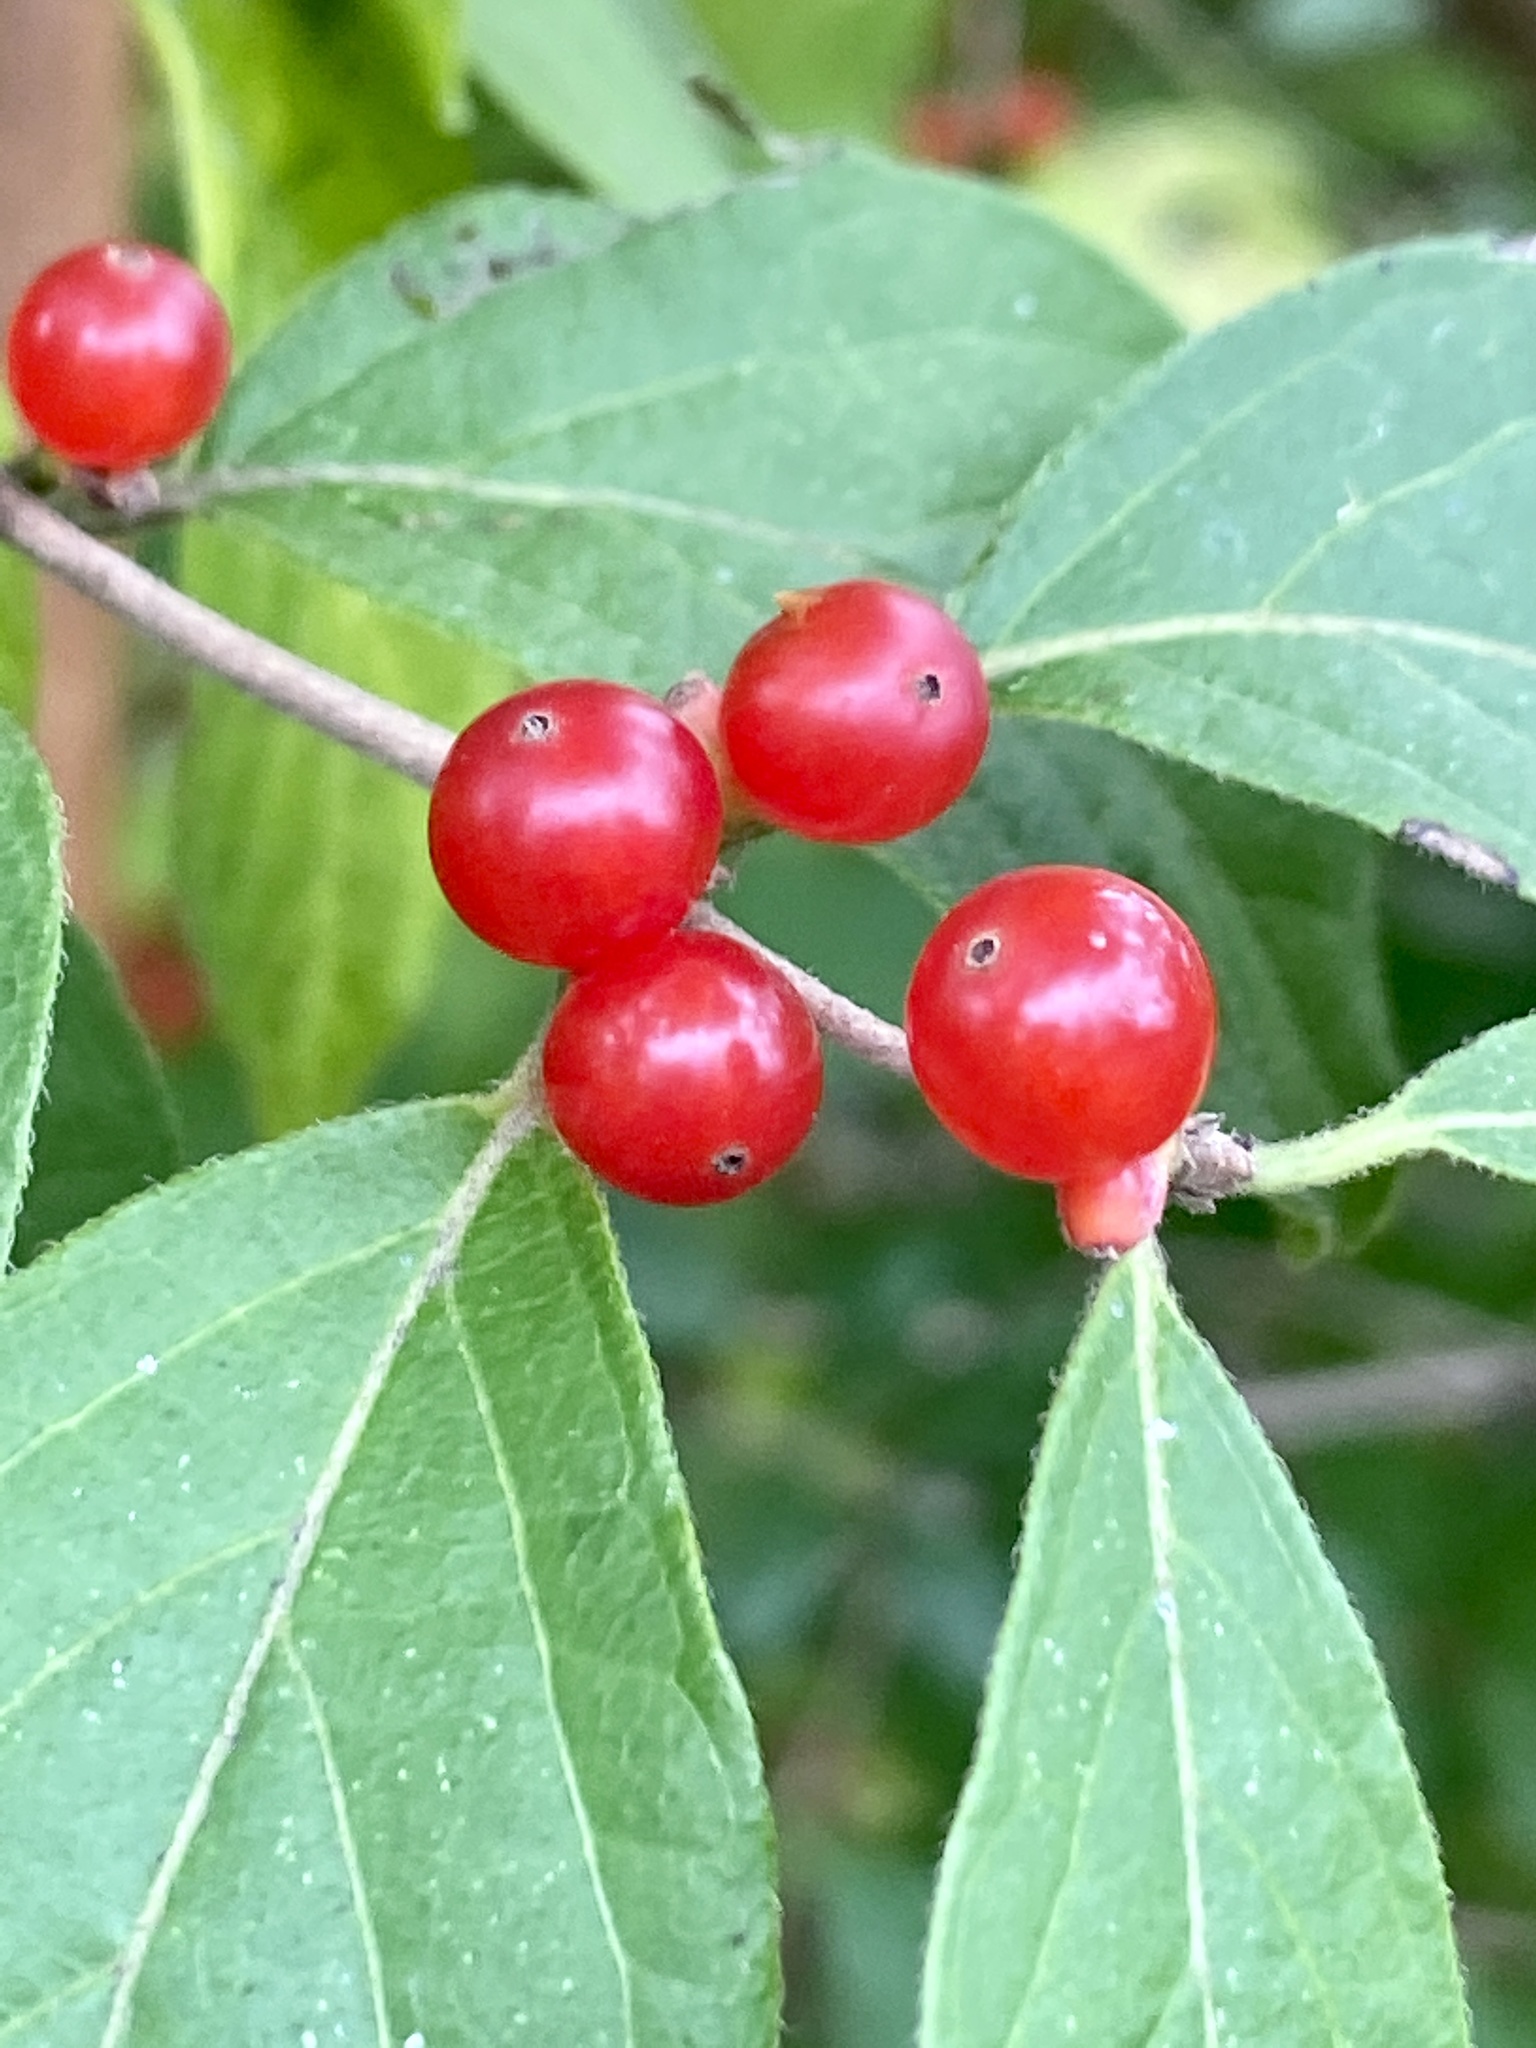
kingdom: Plantae
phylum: Tracheophyta
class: Magnoliopsida
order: Dipsacales
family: Caprifoliaceae
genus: Lonicera
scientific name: Lonicera maackii
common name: Amur honeysuckle
